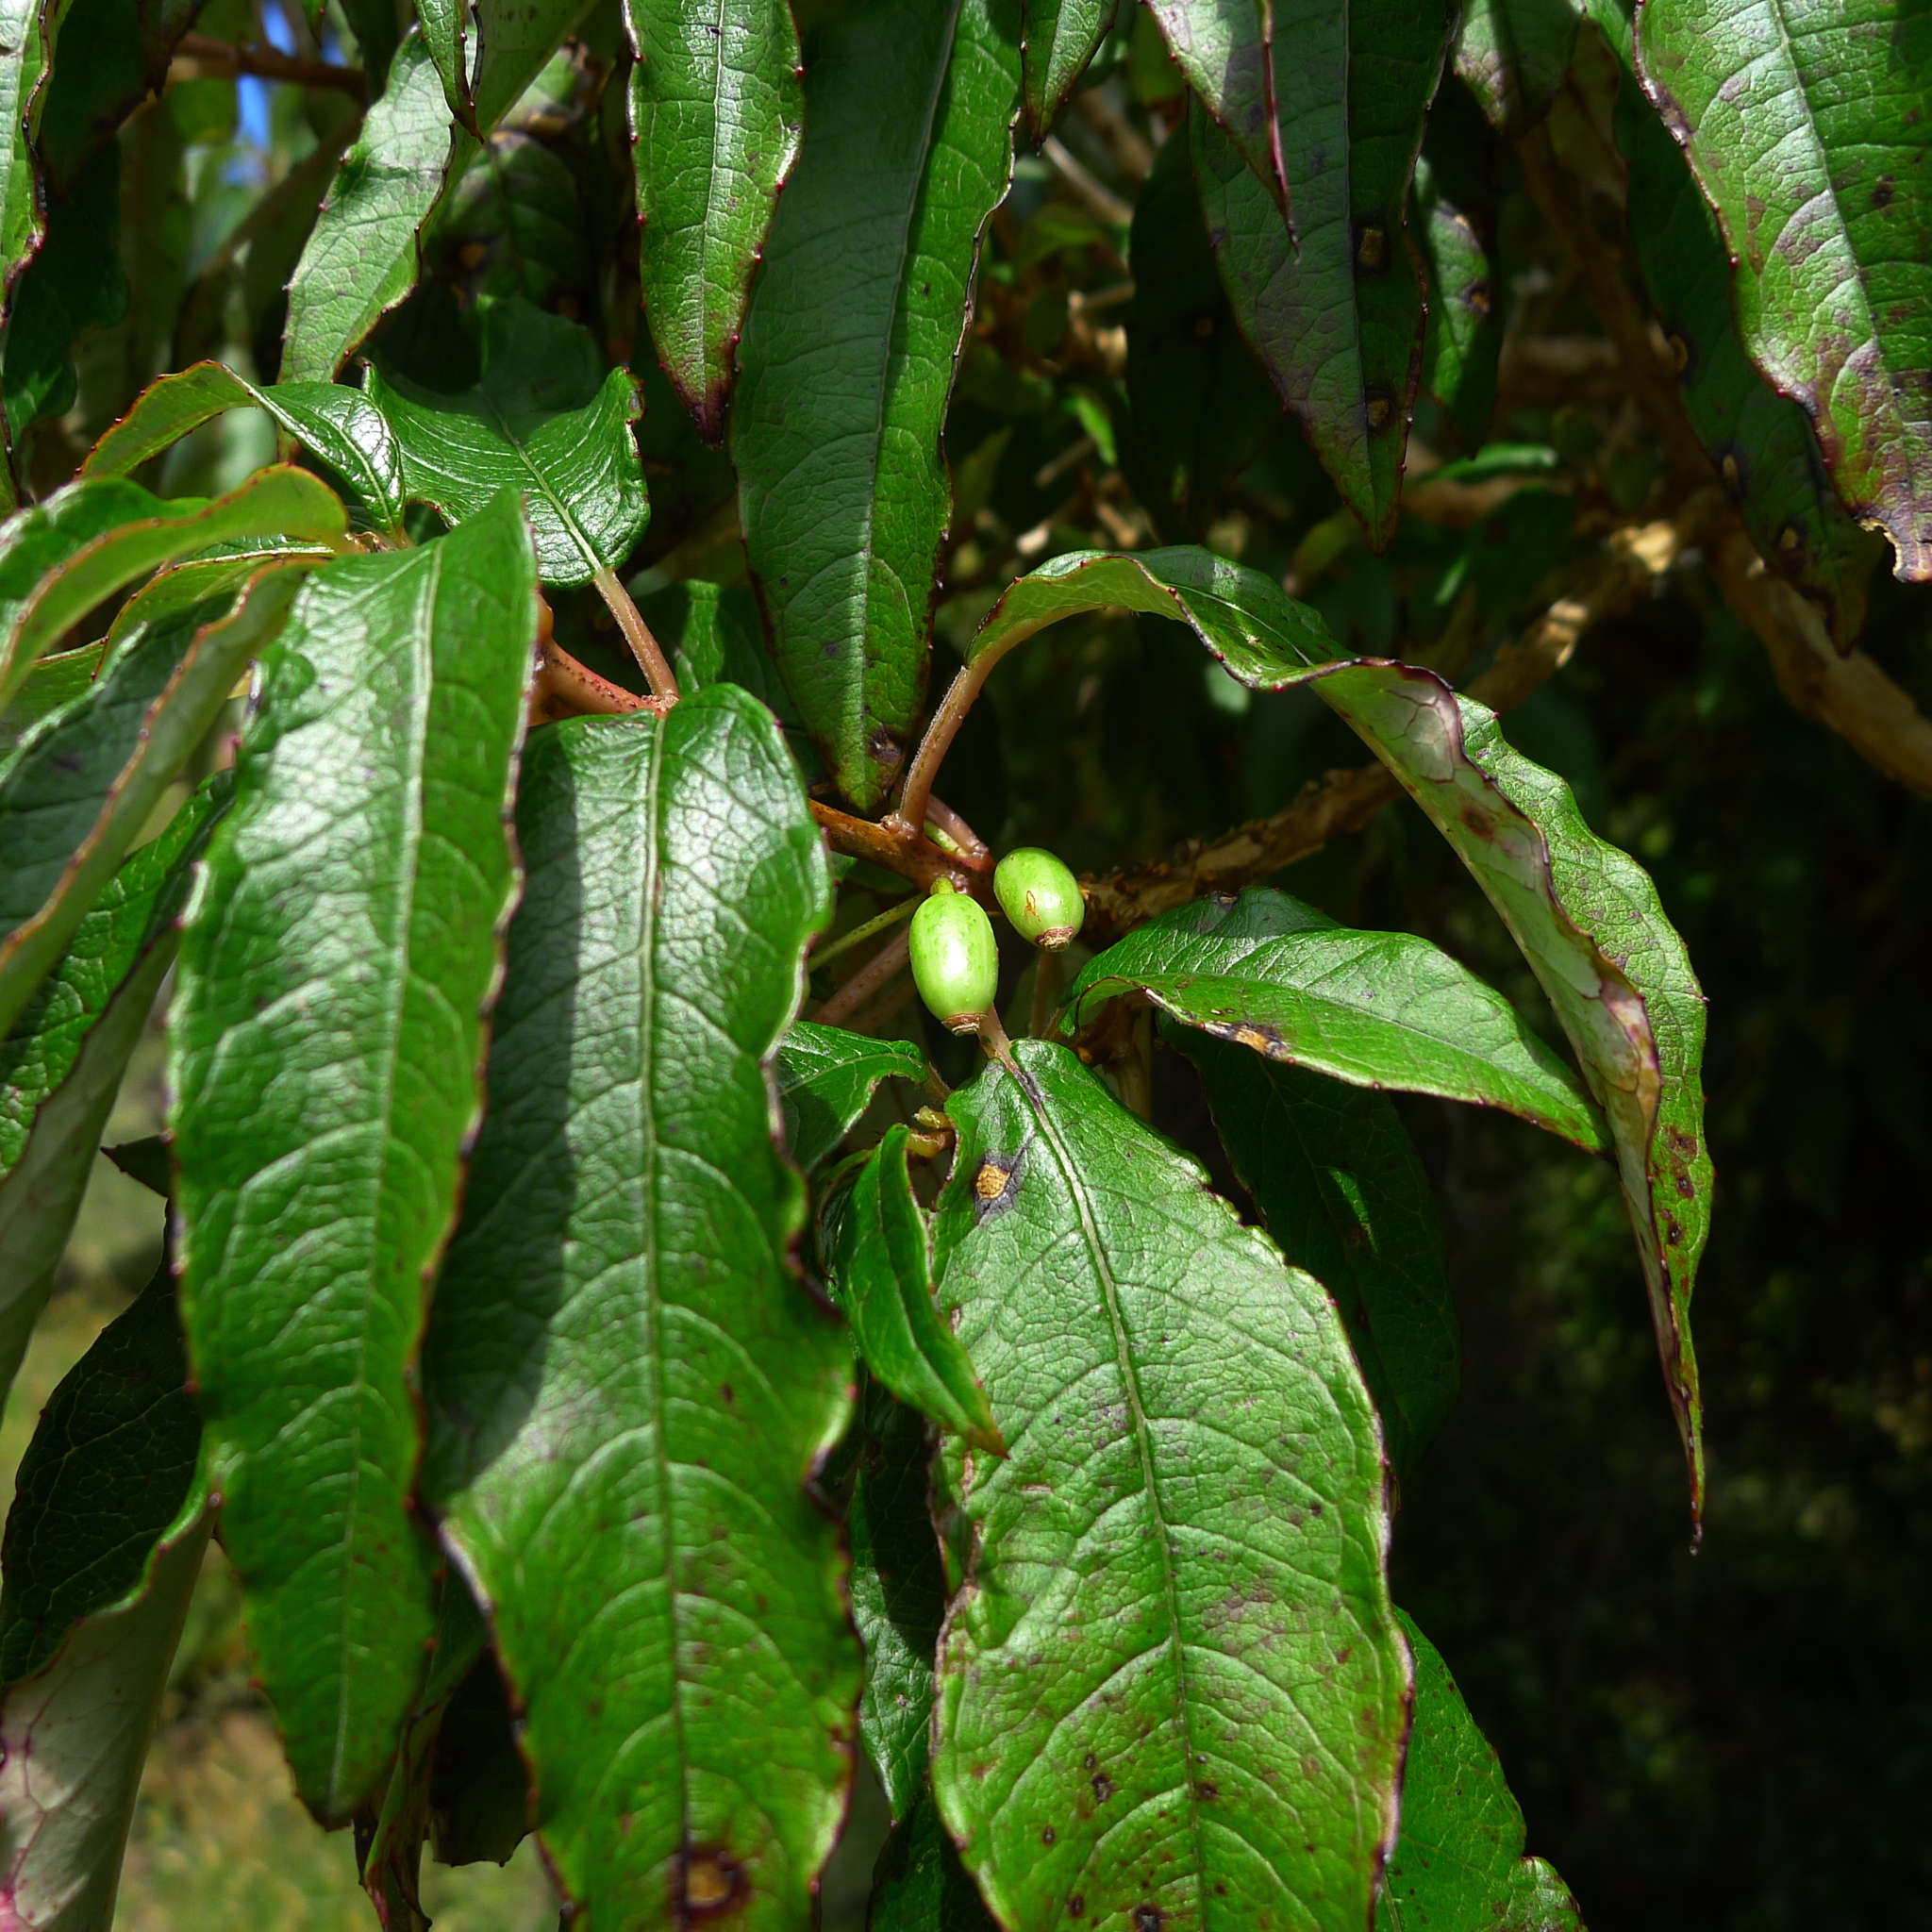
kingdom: Plantae
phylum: Tracheophyta
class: Magnoliopsida
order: Myrtales
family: Onagraceae
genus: Fuchsia
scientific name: Fuchsia excorticata
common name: Tree fuchsia
